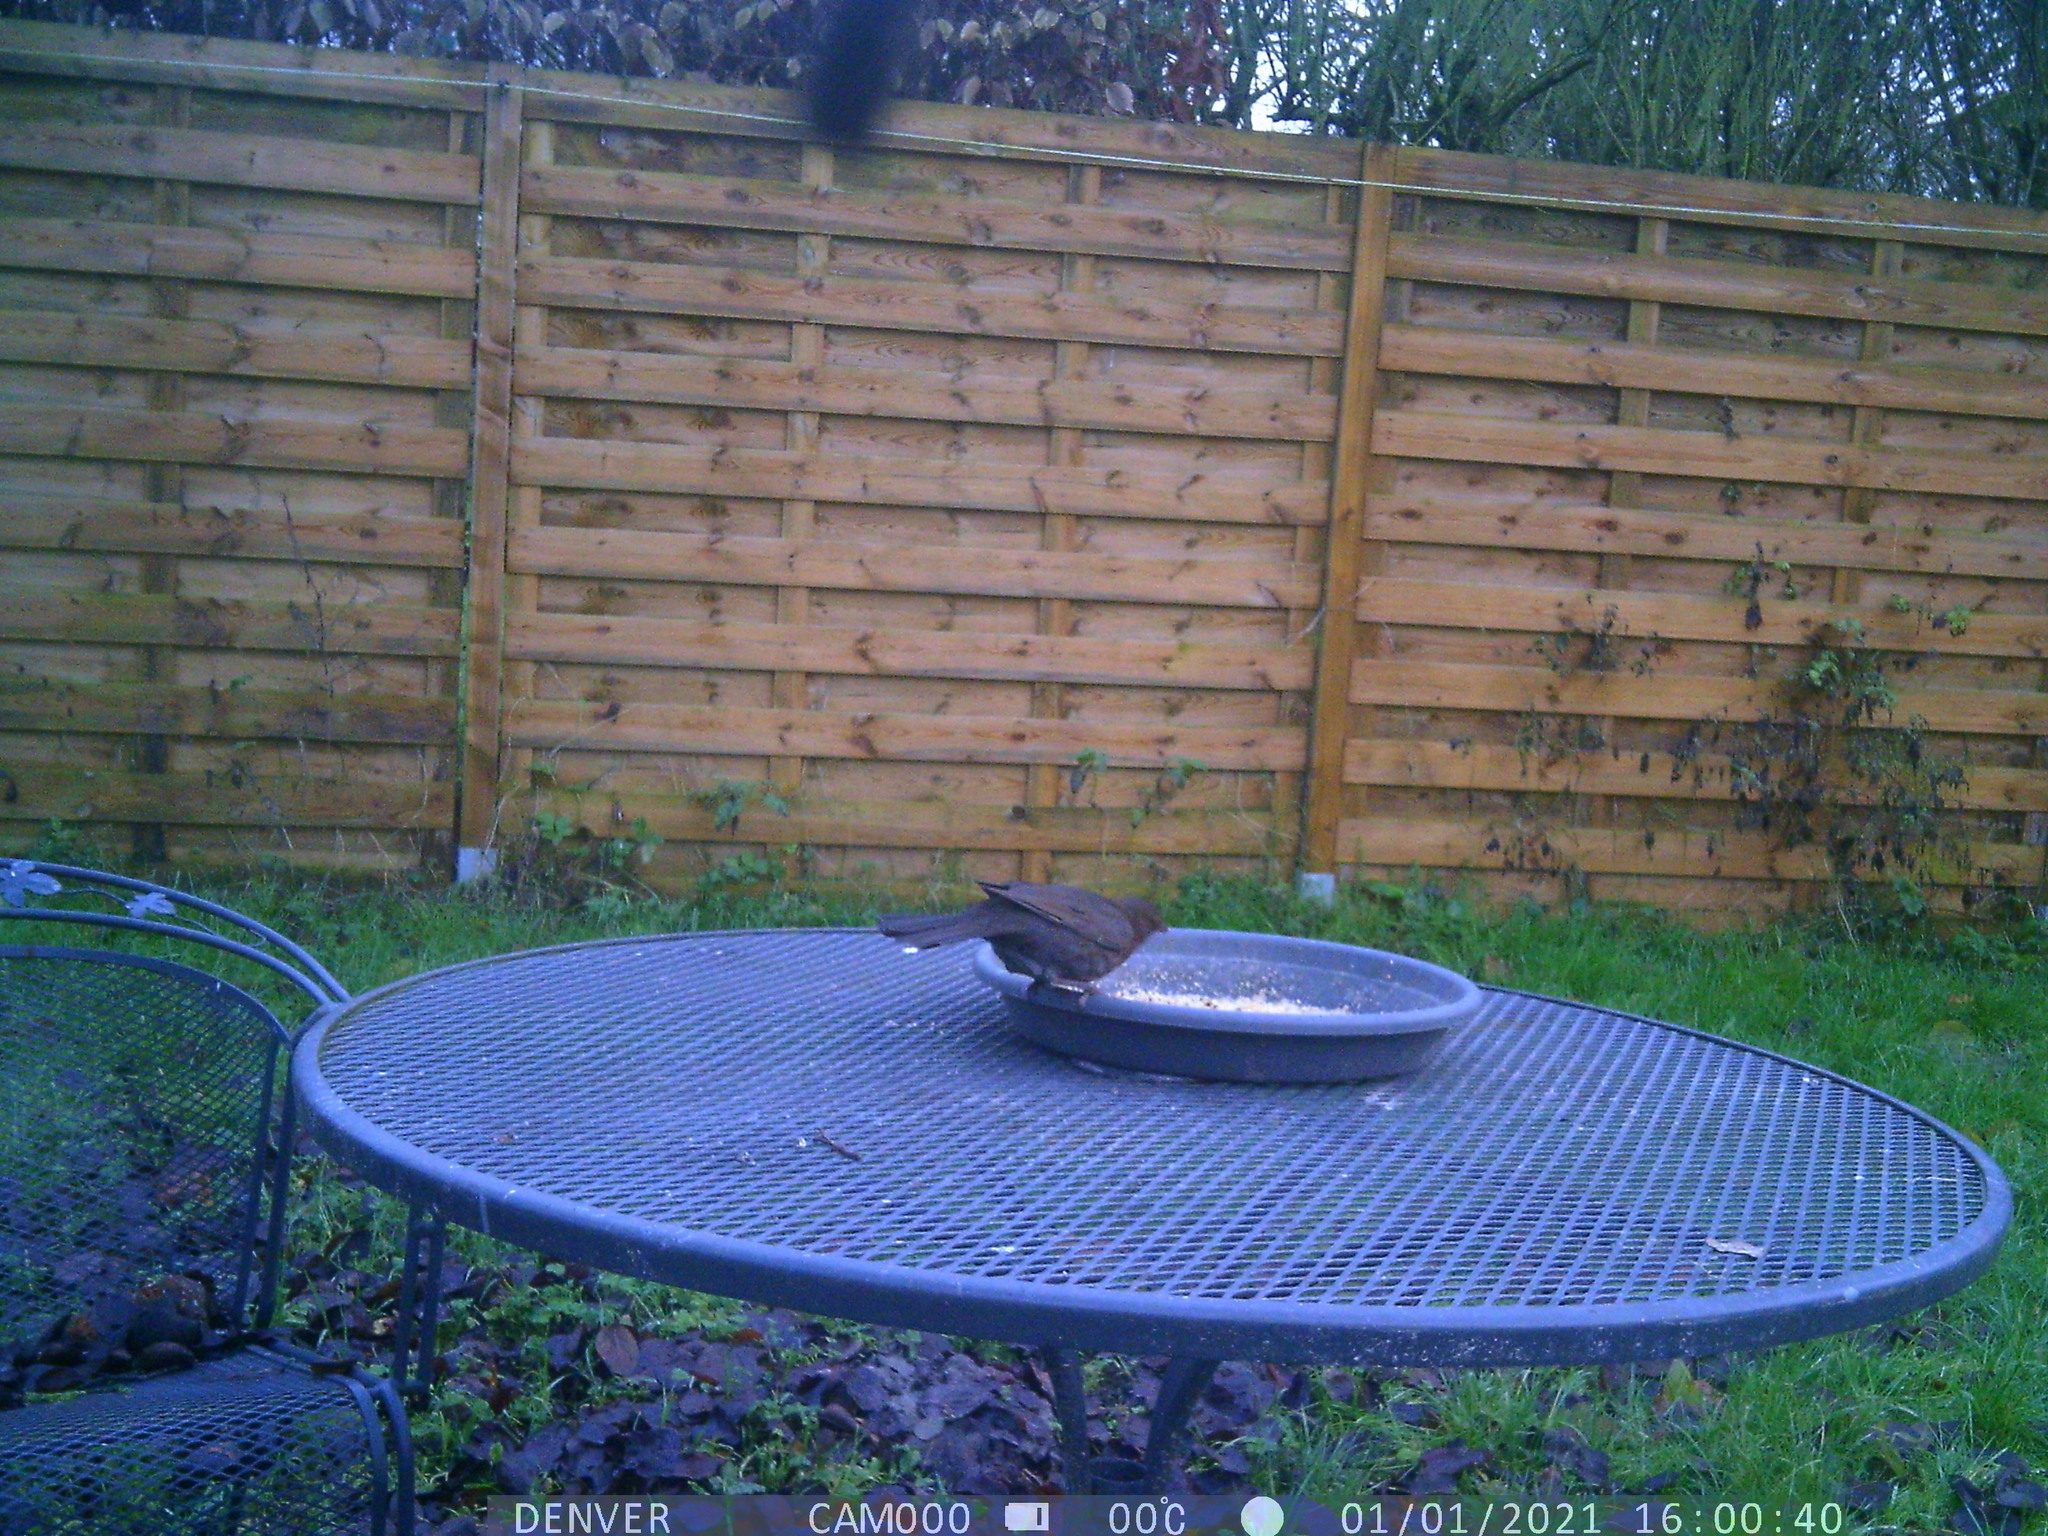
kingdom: Animalia
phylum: Chordata
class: Aves
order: Passeriformes
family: Turdidae
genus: Turdus
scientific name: Turdus merula
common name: Common blackbird
